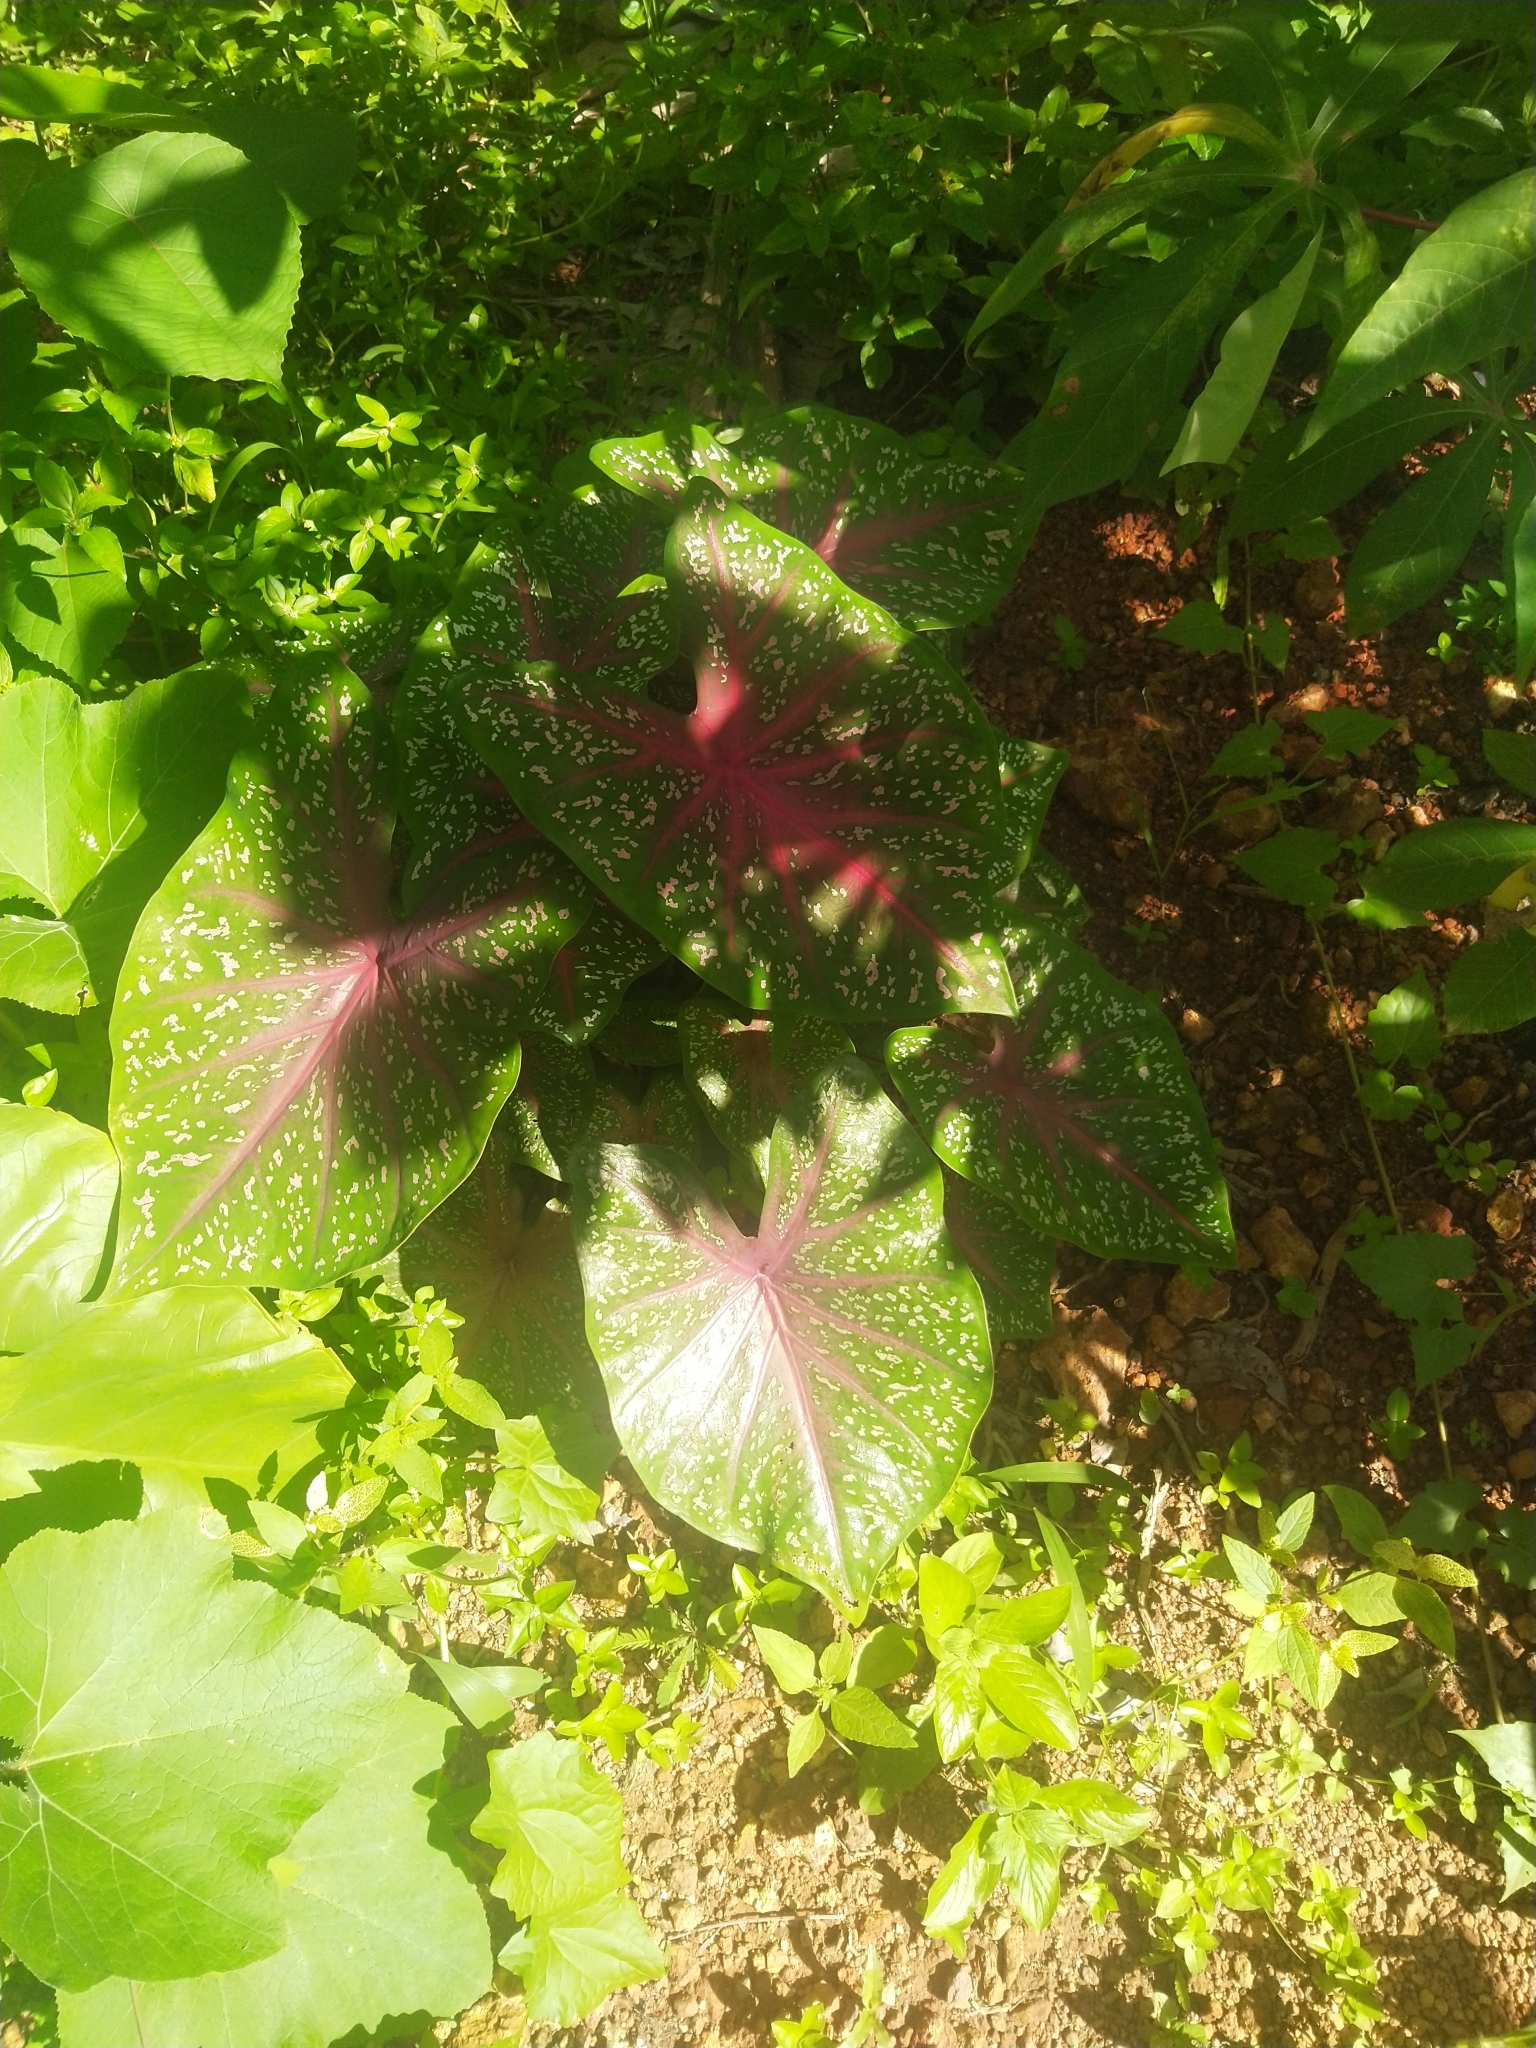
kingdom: Plantae
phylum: Tracheophyta
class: Liliopsida
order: Alismatales
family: Araceae
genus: Caladium
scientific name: Caladium bicolor
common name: Artist's pallet
